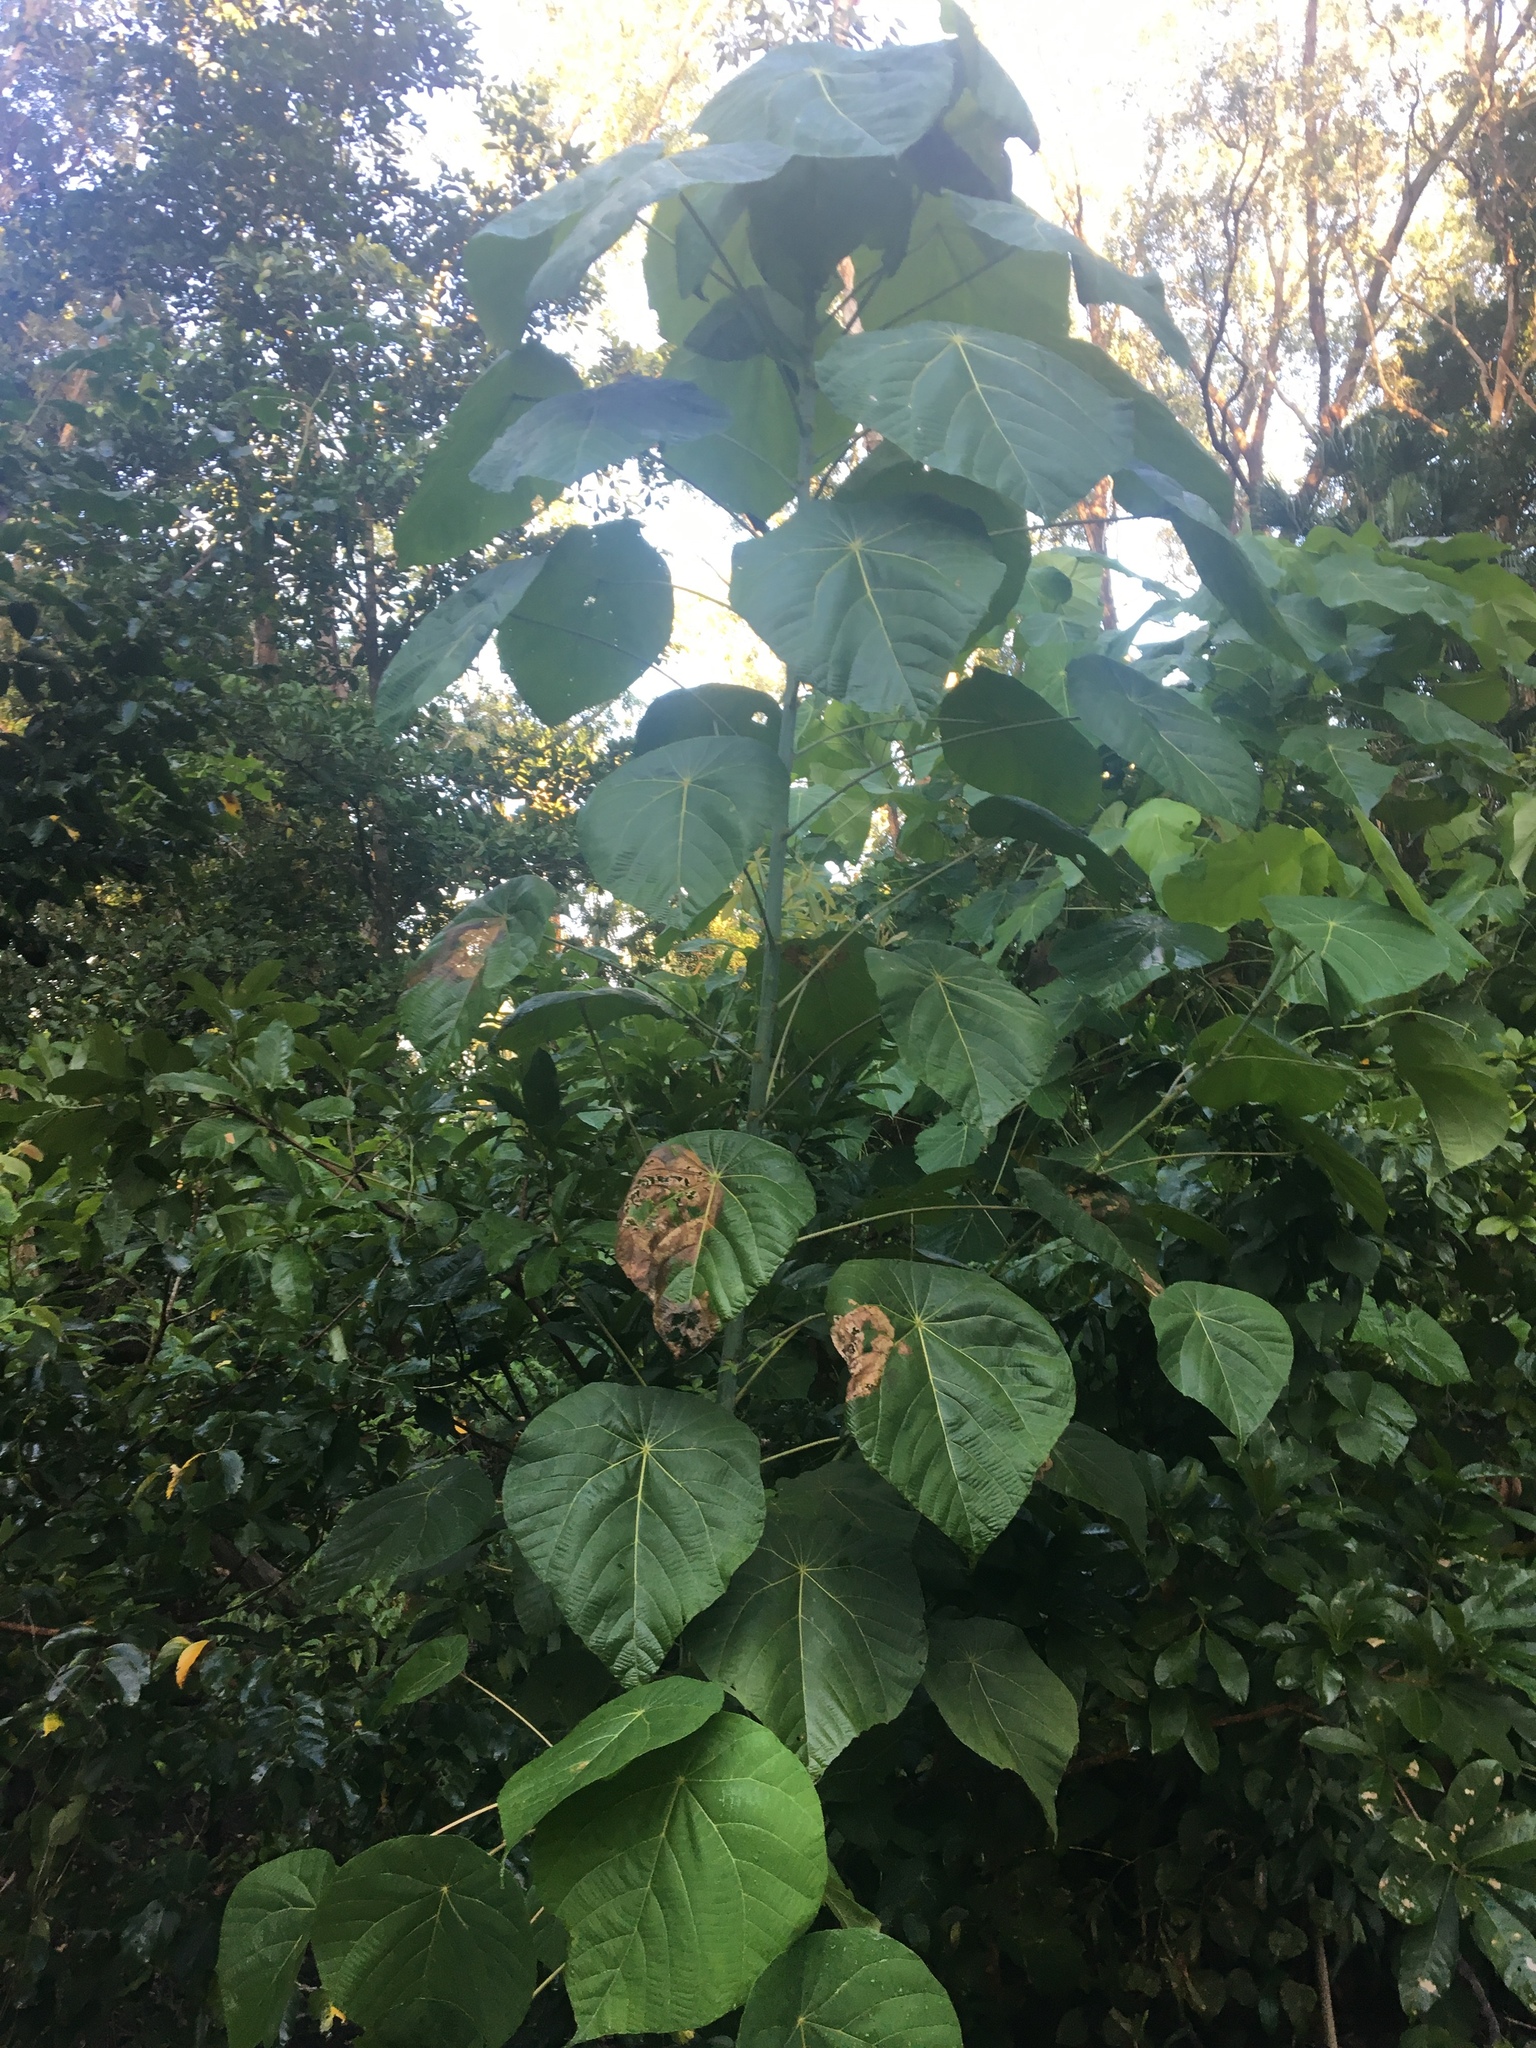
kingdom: Plantae
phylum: Tracheophyta
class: Magnoliopsida
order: Malpighiales
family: Euphorbiaceae
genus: Macaranga
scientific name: Macaranga tanarius
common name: Parasol leaf tree
